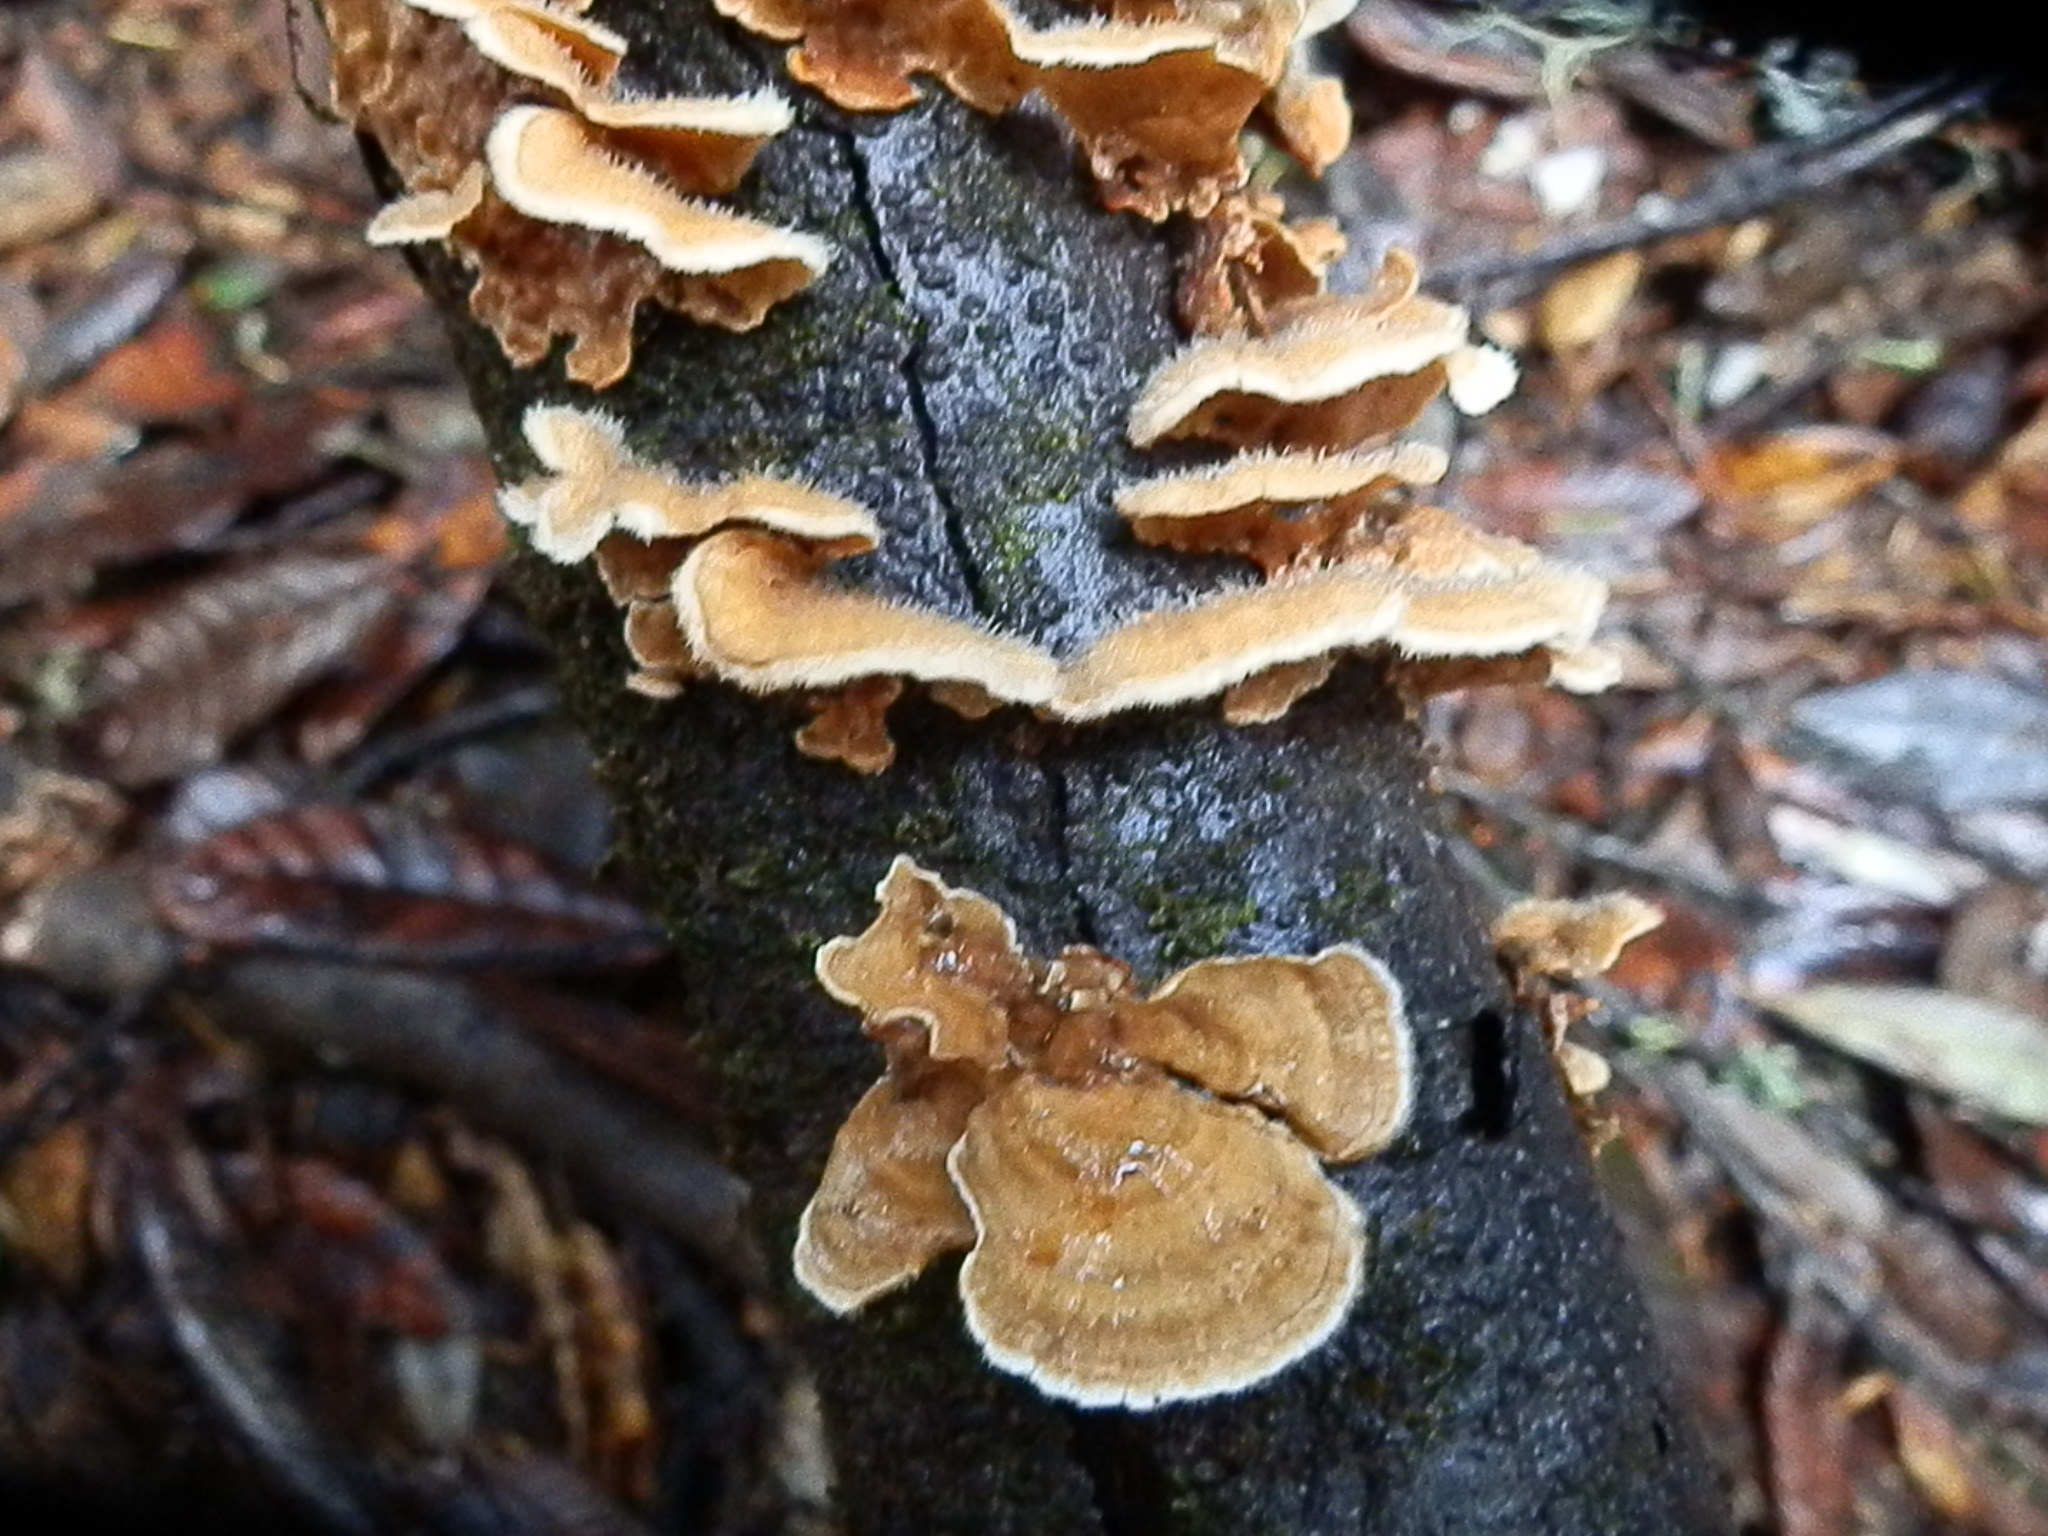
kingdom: Fungi
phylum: Basidiomycota
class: Agaricomycetes
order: Russulales
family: Stereaceae
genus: Stereum
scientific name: Stereum hirsutum
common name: Hairy curtain crust
